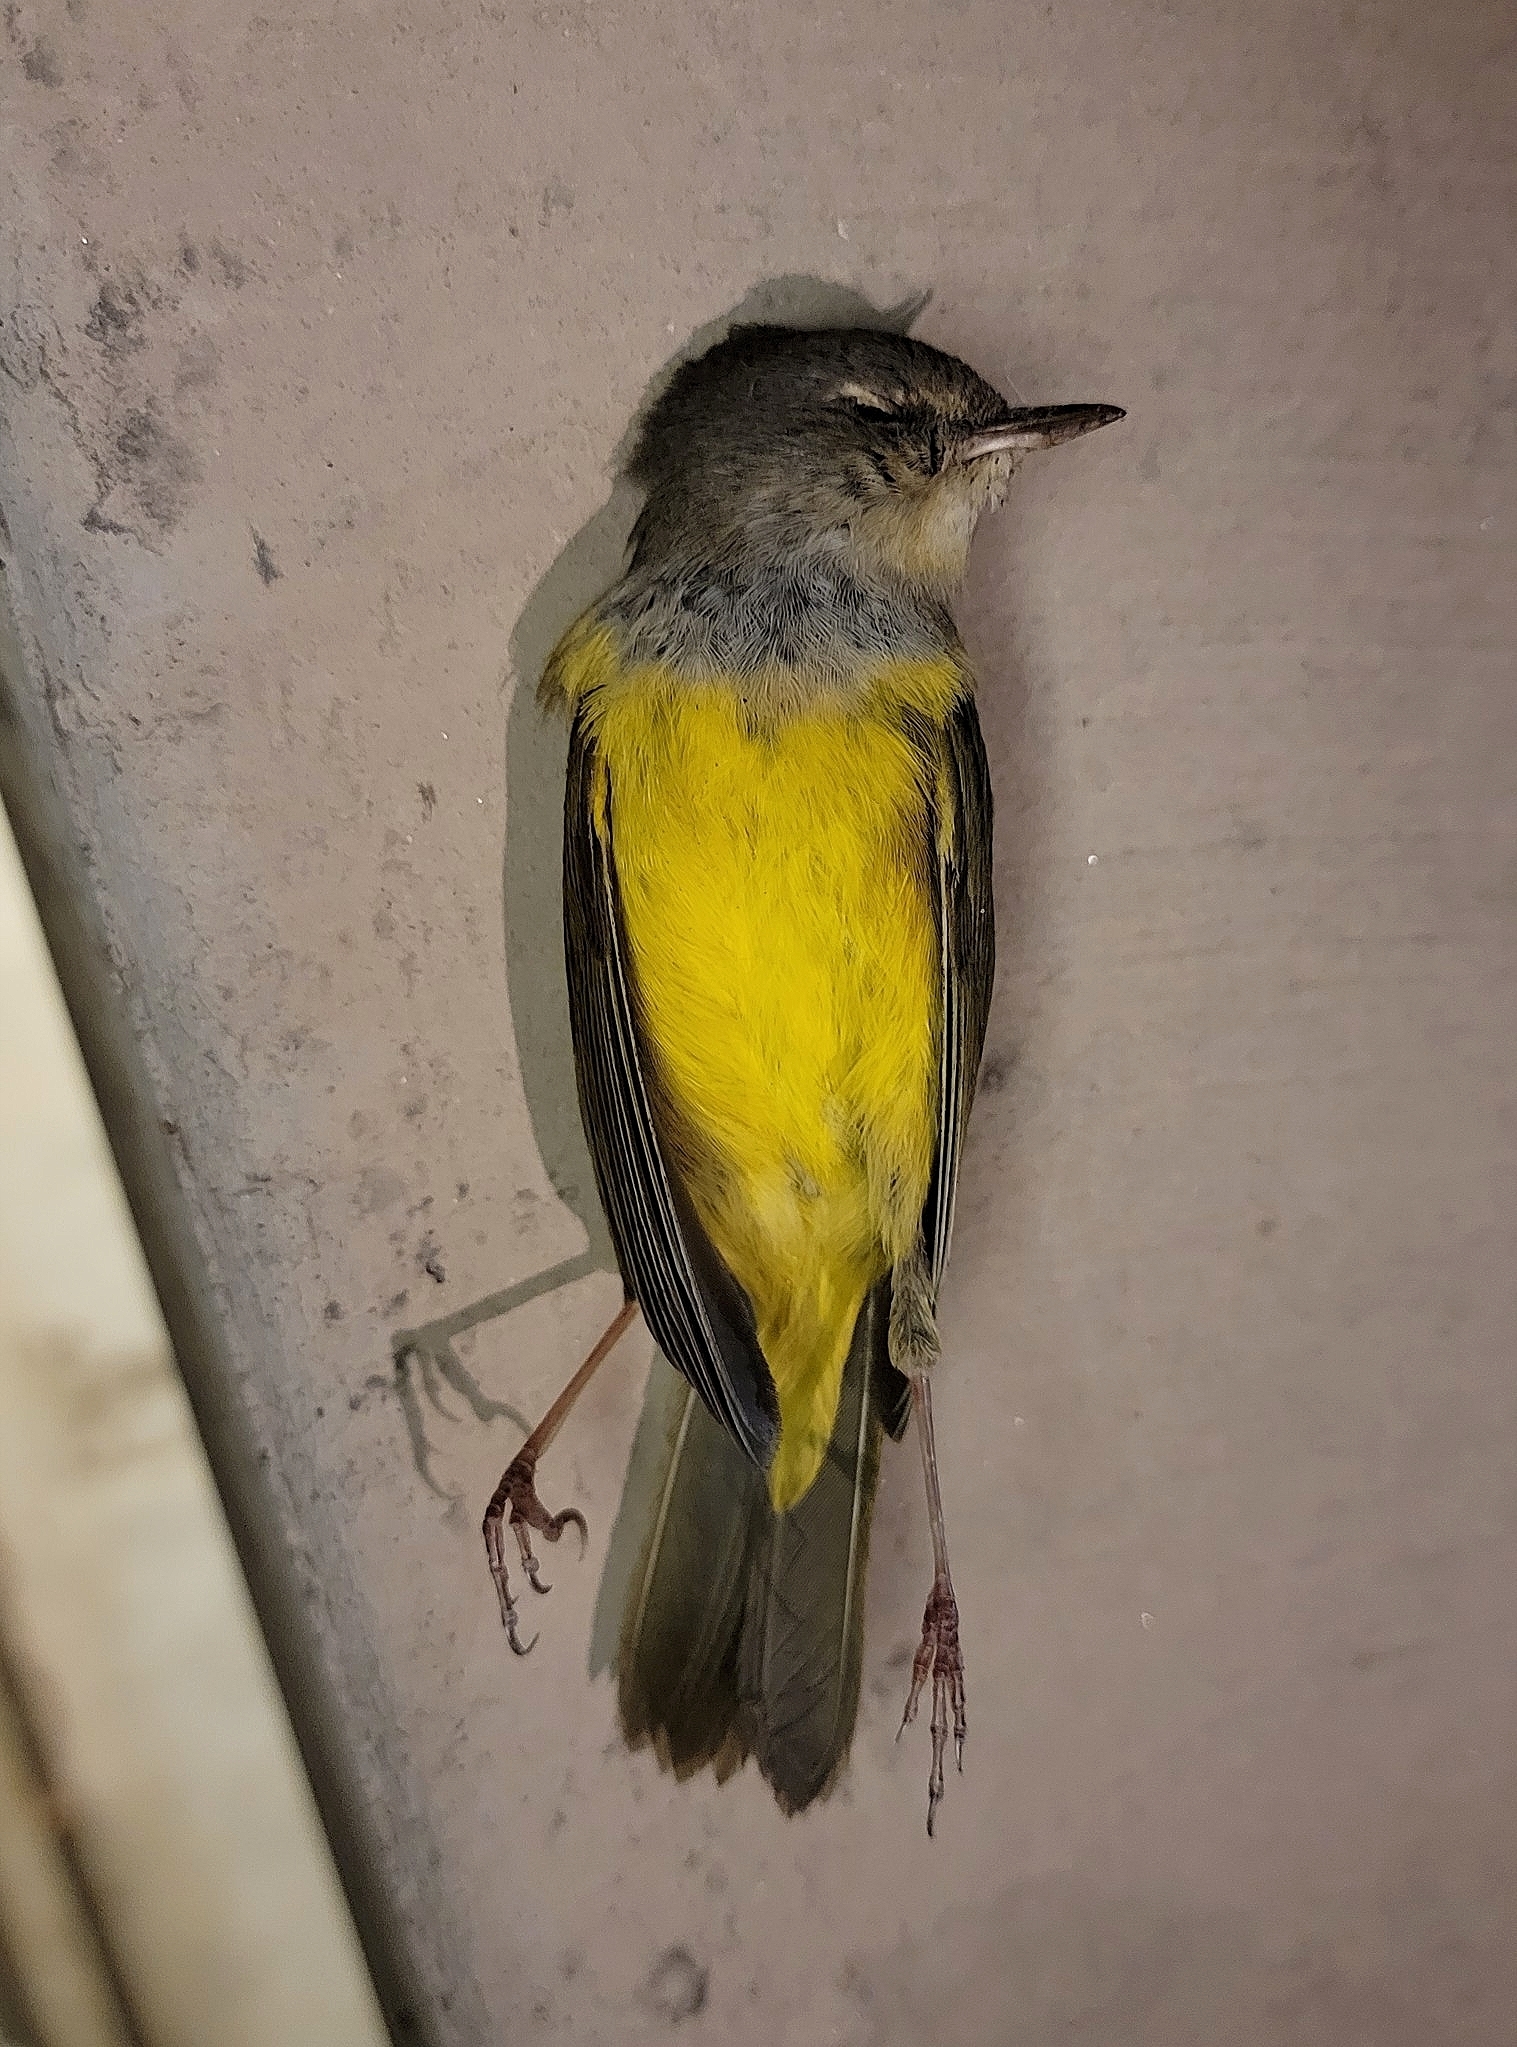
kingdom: Animalia
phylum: Chordata
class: Aves
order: Passeriformes
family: Parulidae
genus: Geothlypis
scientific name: Geothlypis tolmiei
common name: Macgillivray's warbler
